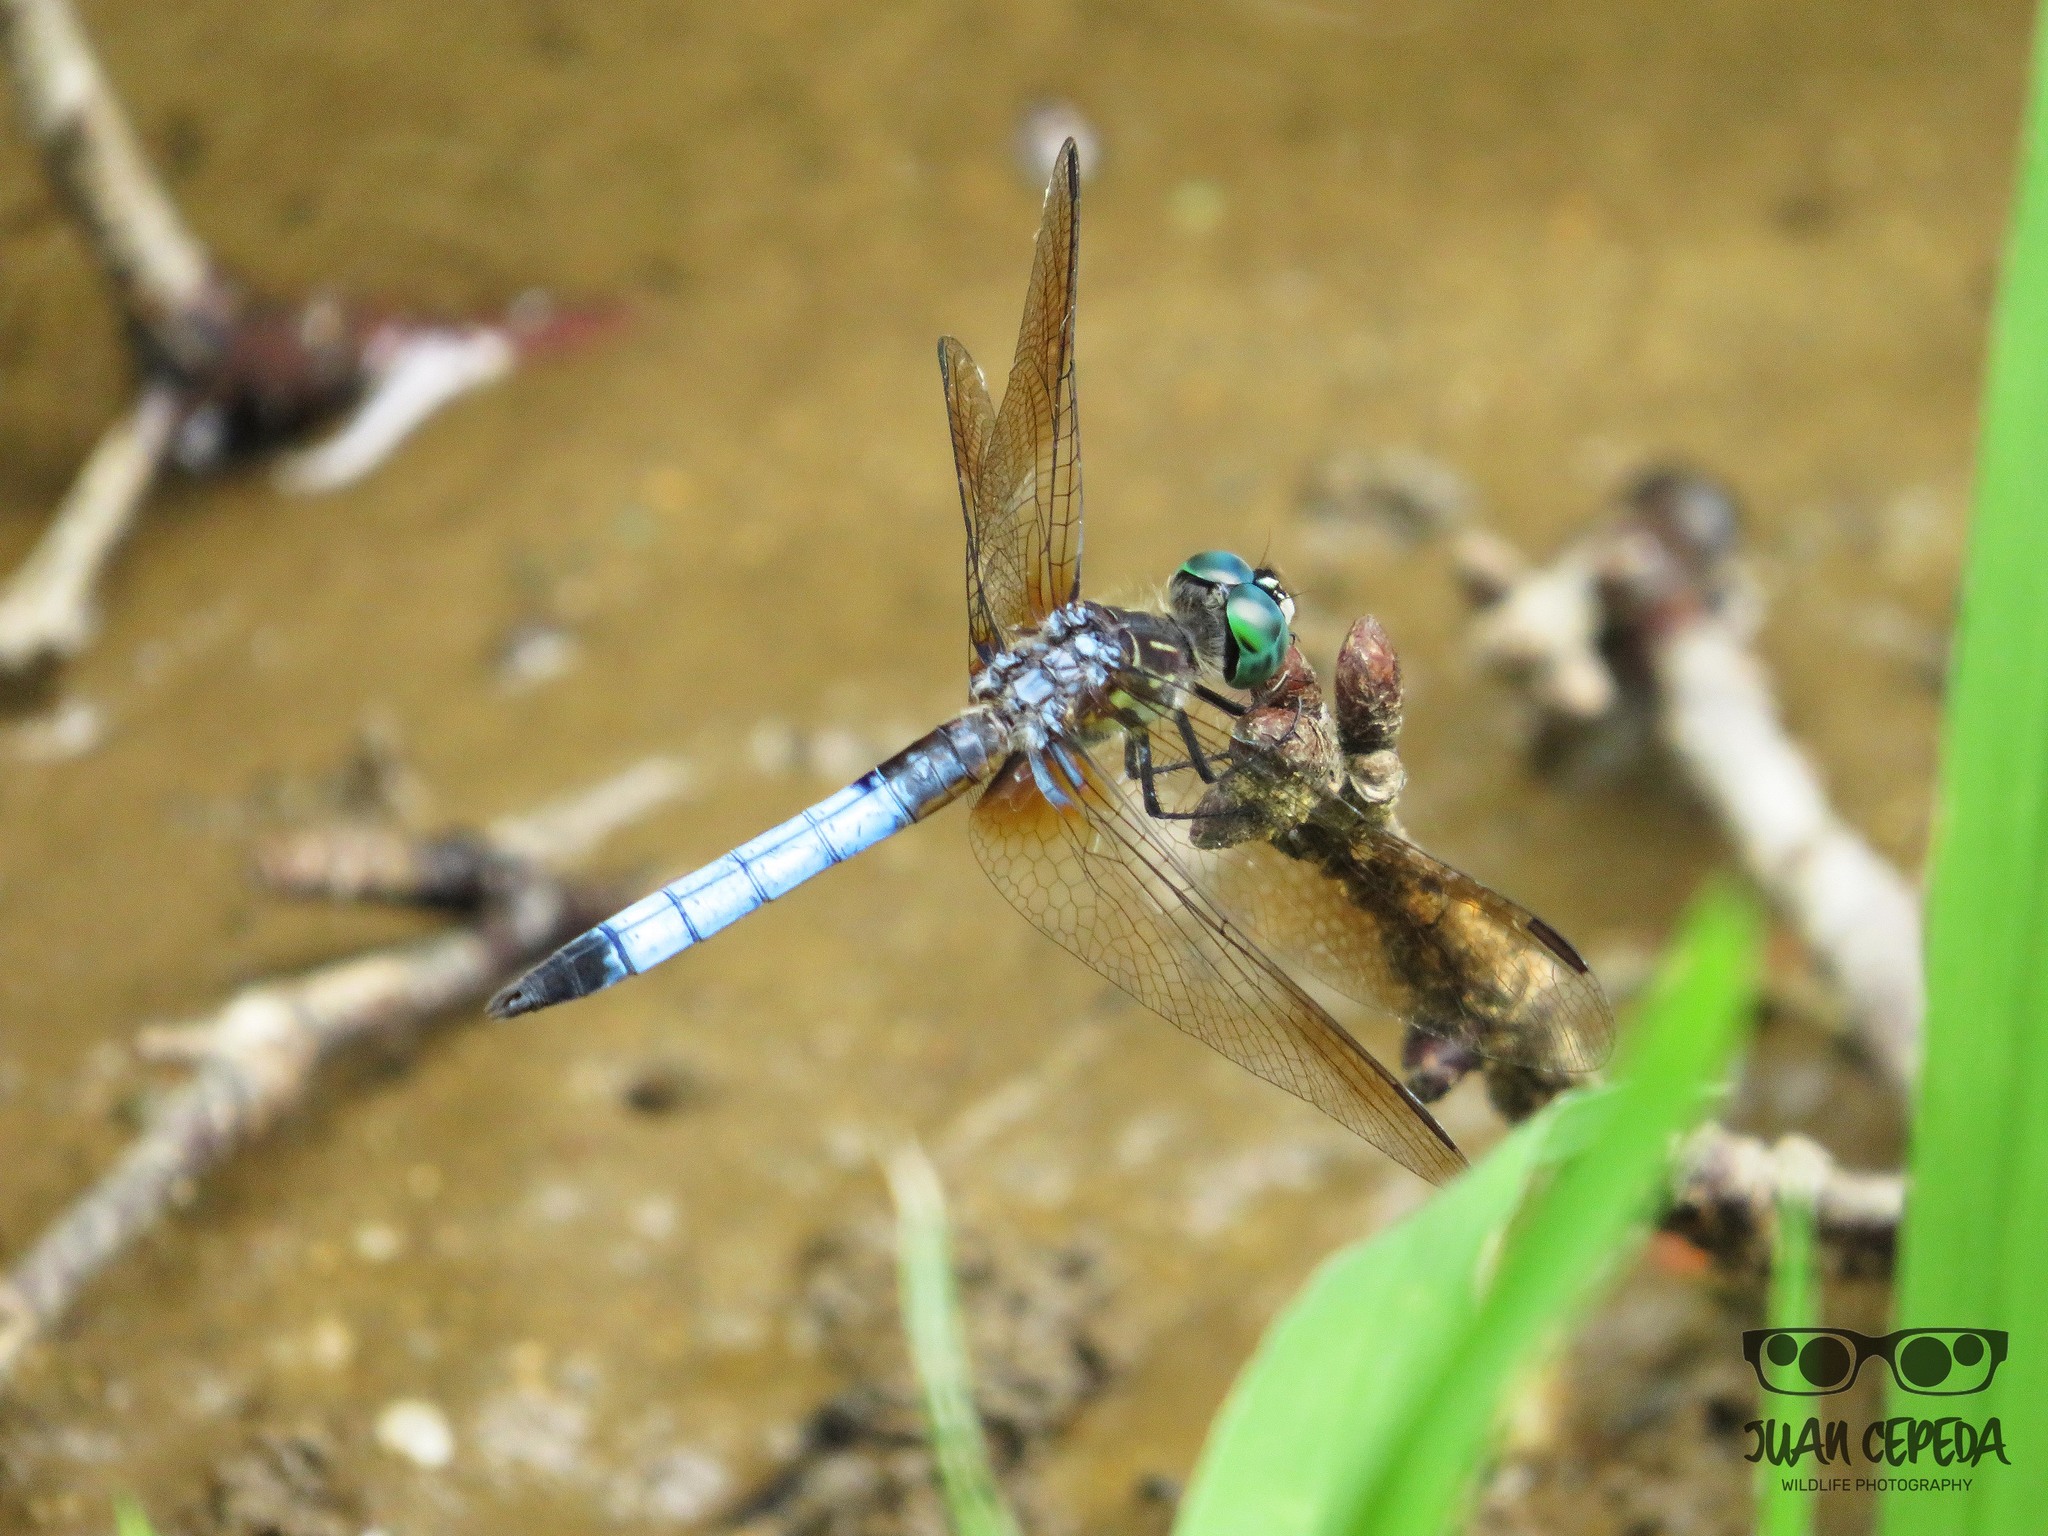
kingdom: Animalia
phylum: Arthropoda
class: Insecta
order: Odonata
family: Libellulidae
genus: Pachydiplax
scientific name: Pachydiplax longipennis
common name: Blue dasher
